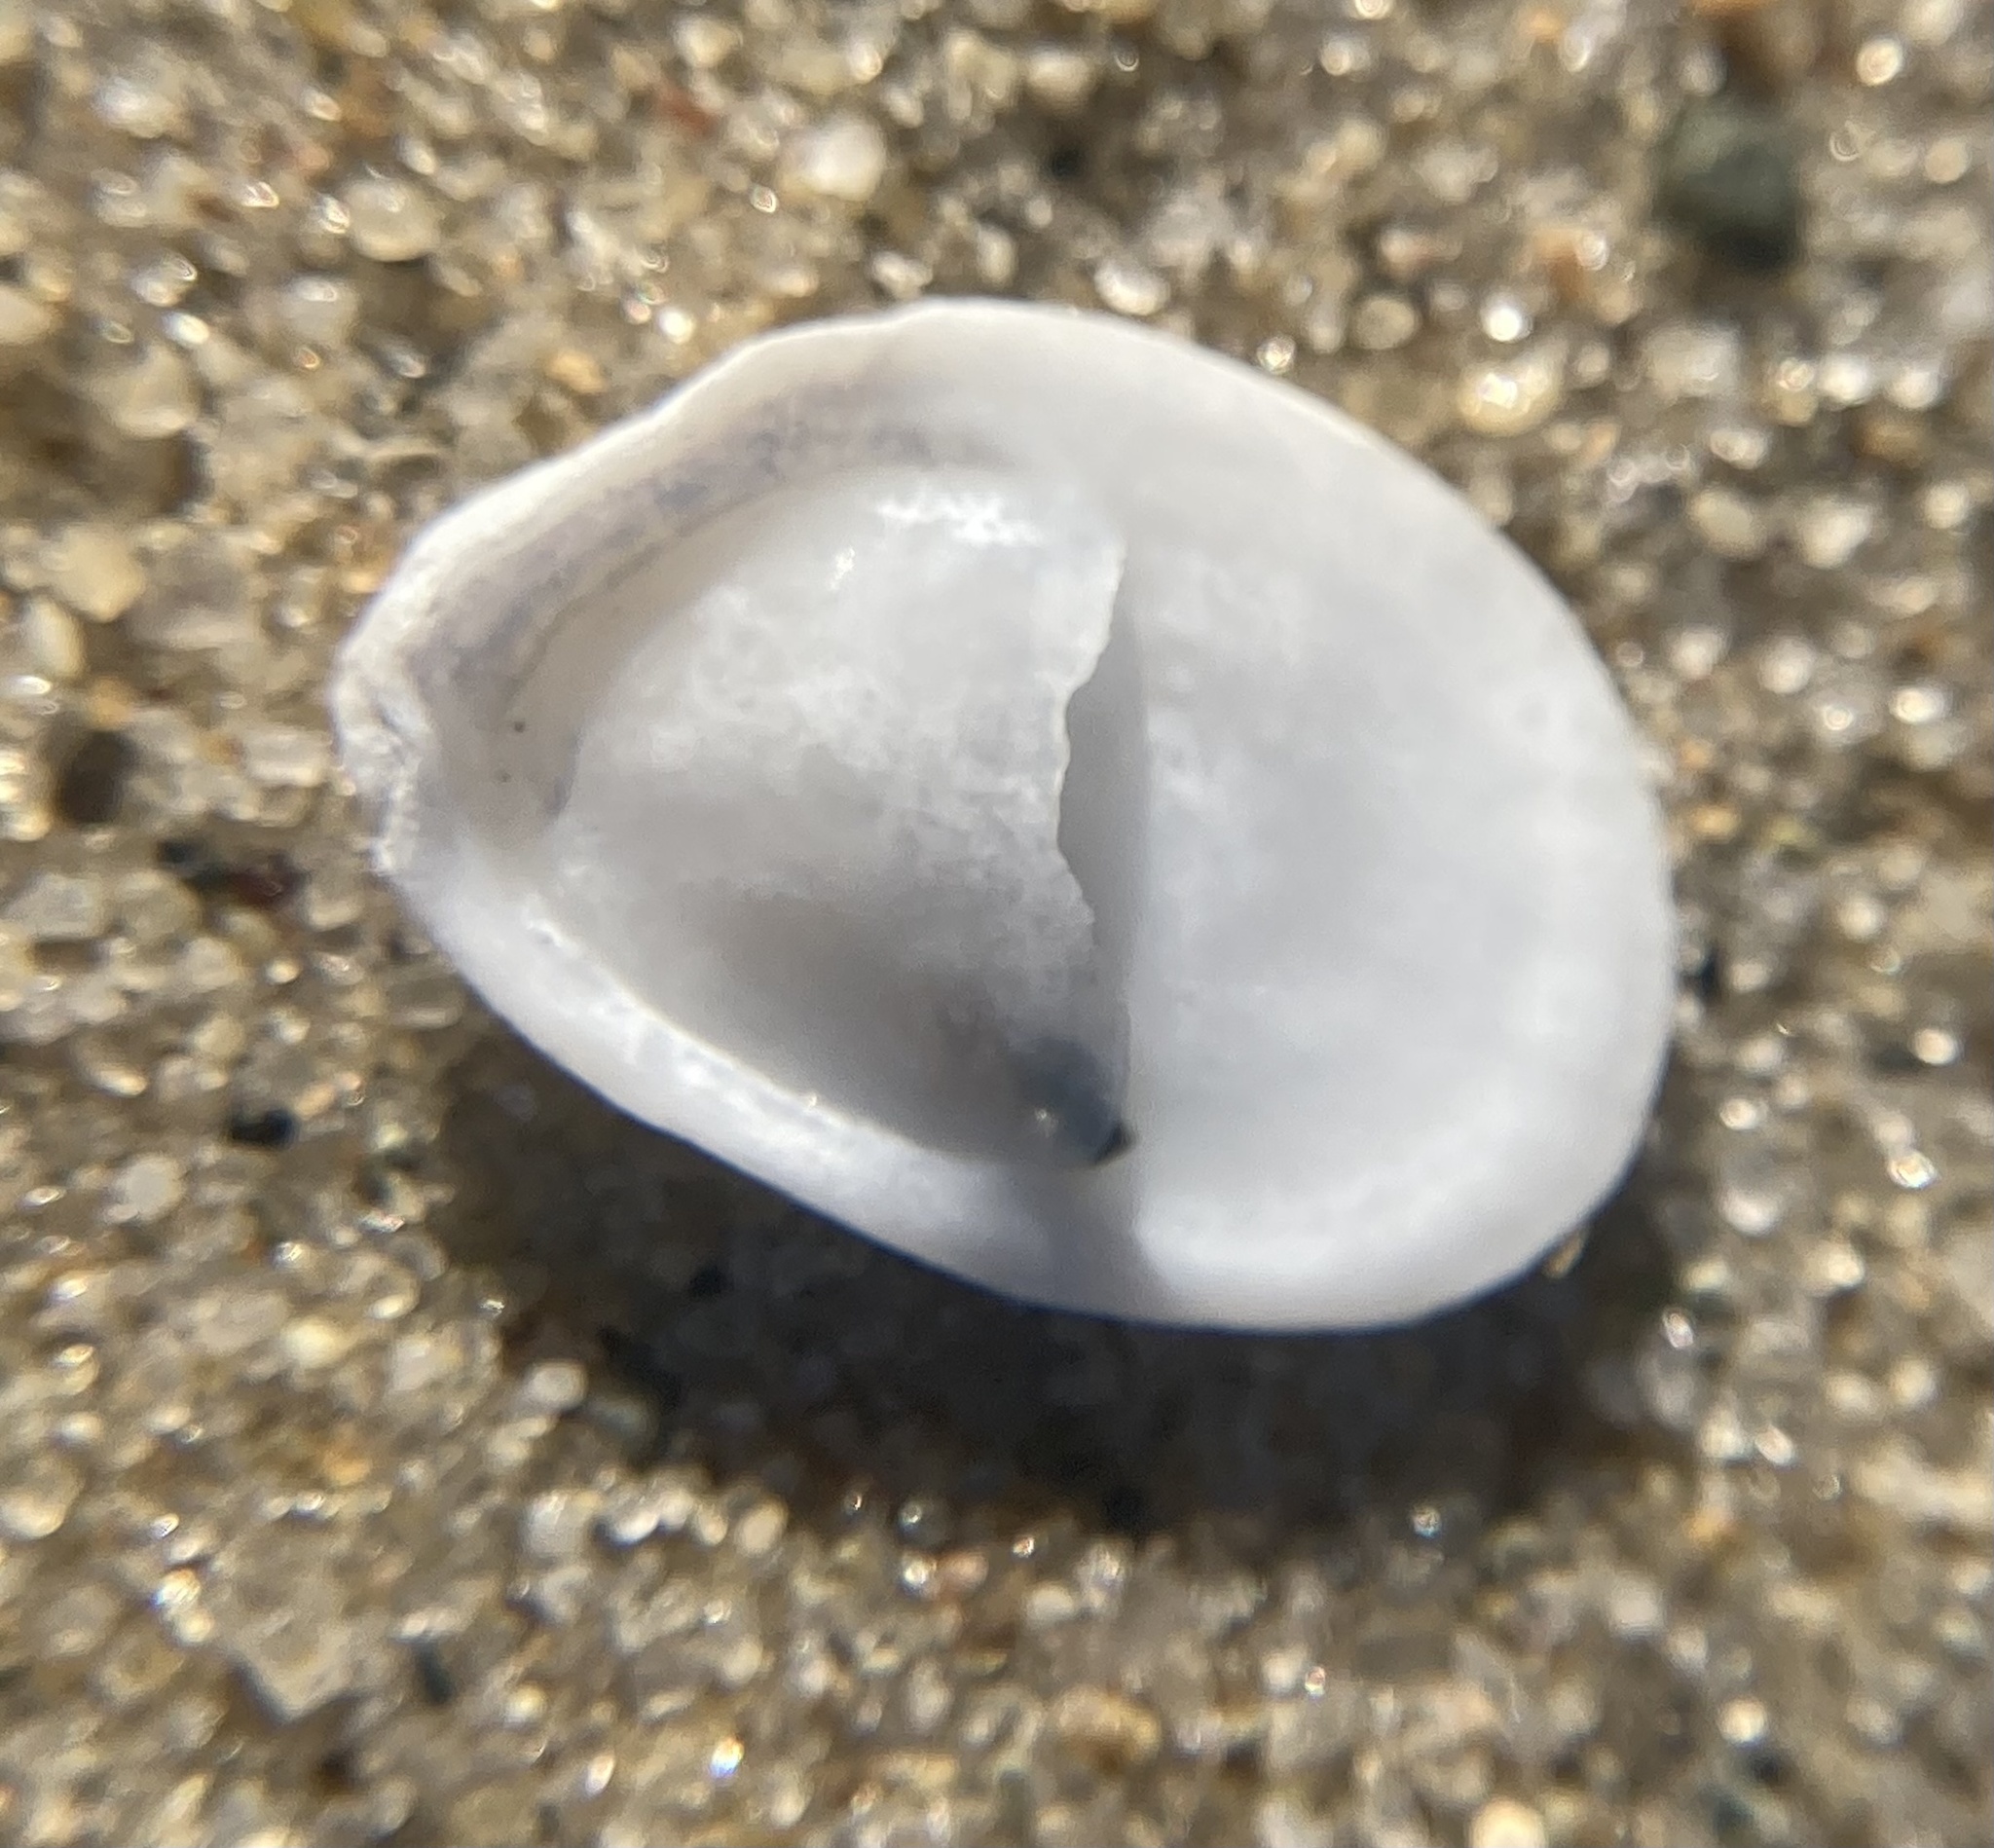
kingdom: Animalia
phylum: Mollusca
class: Gastropoda
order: Littorinimorpha
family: Calyptraeidae
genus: Crepidula
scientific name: Crepidula plana
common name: Eastern white slippersnail
